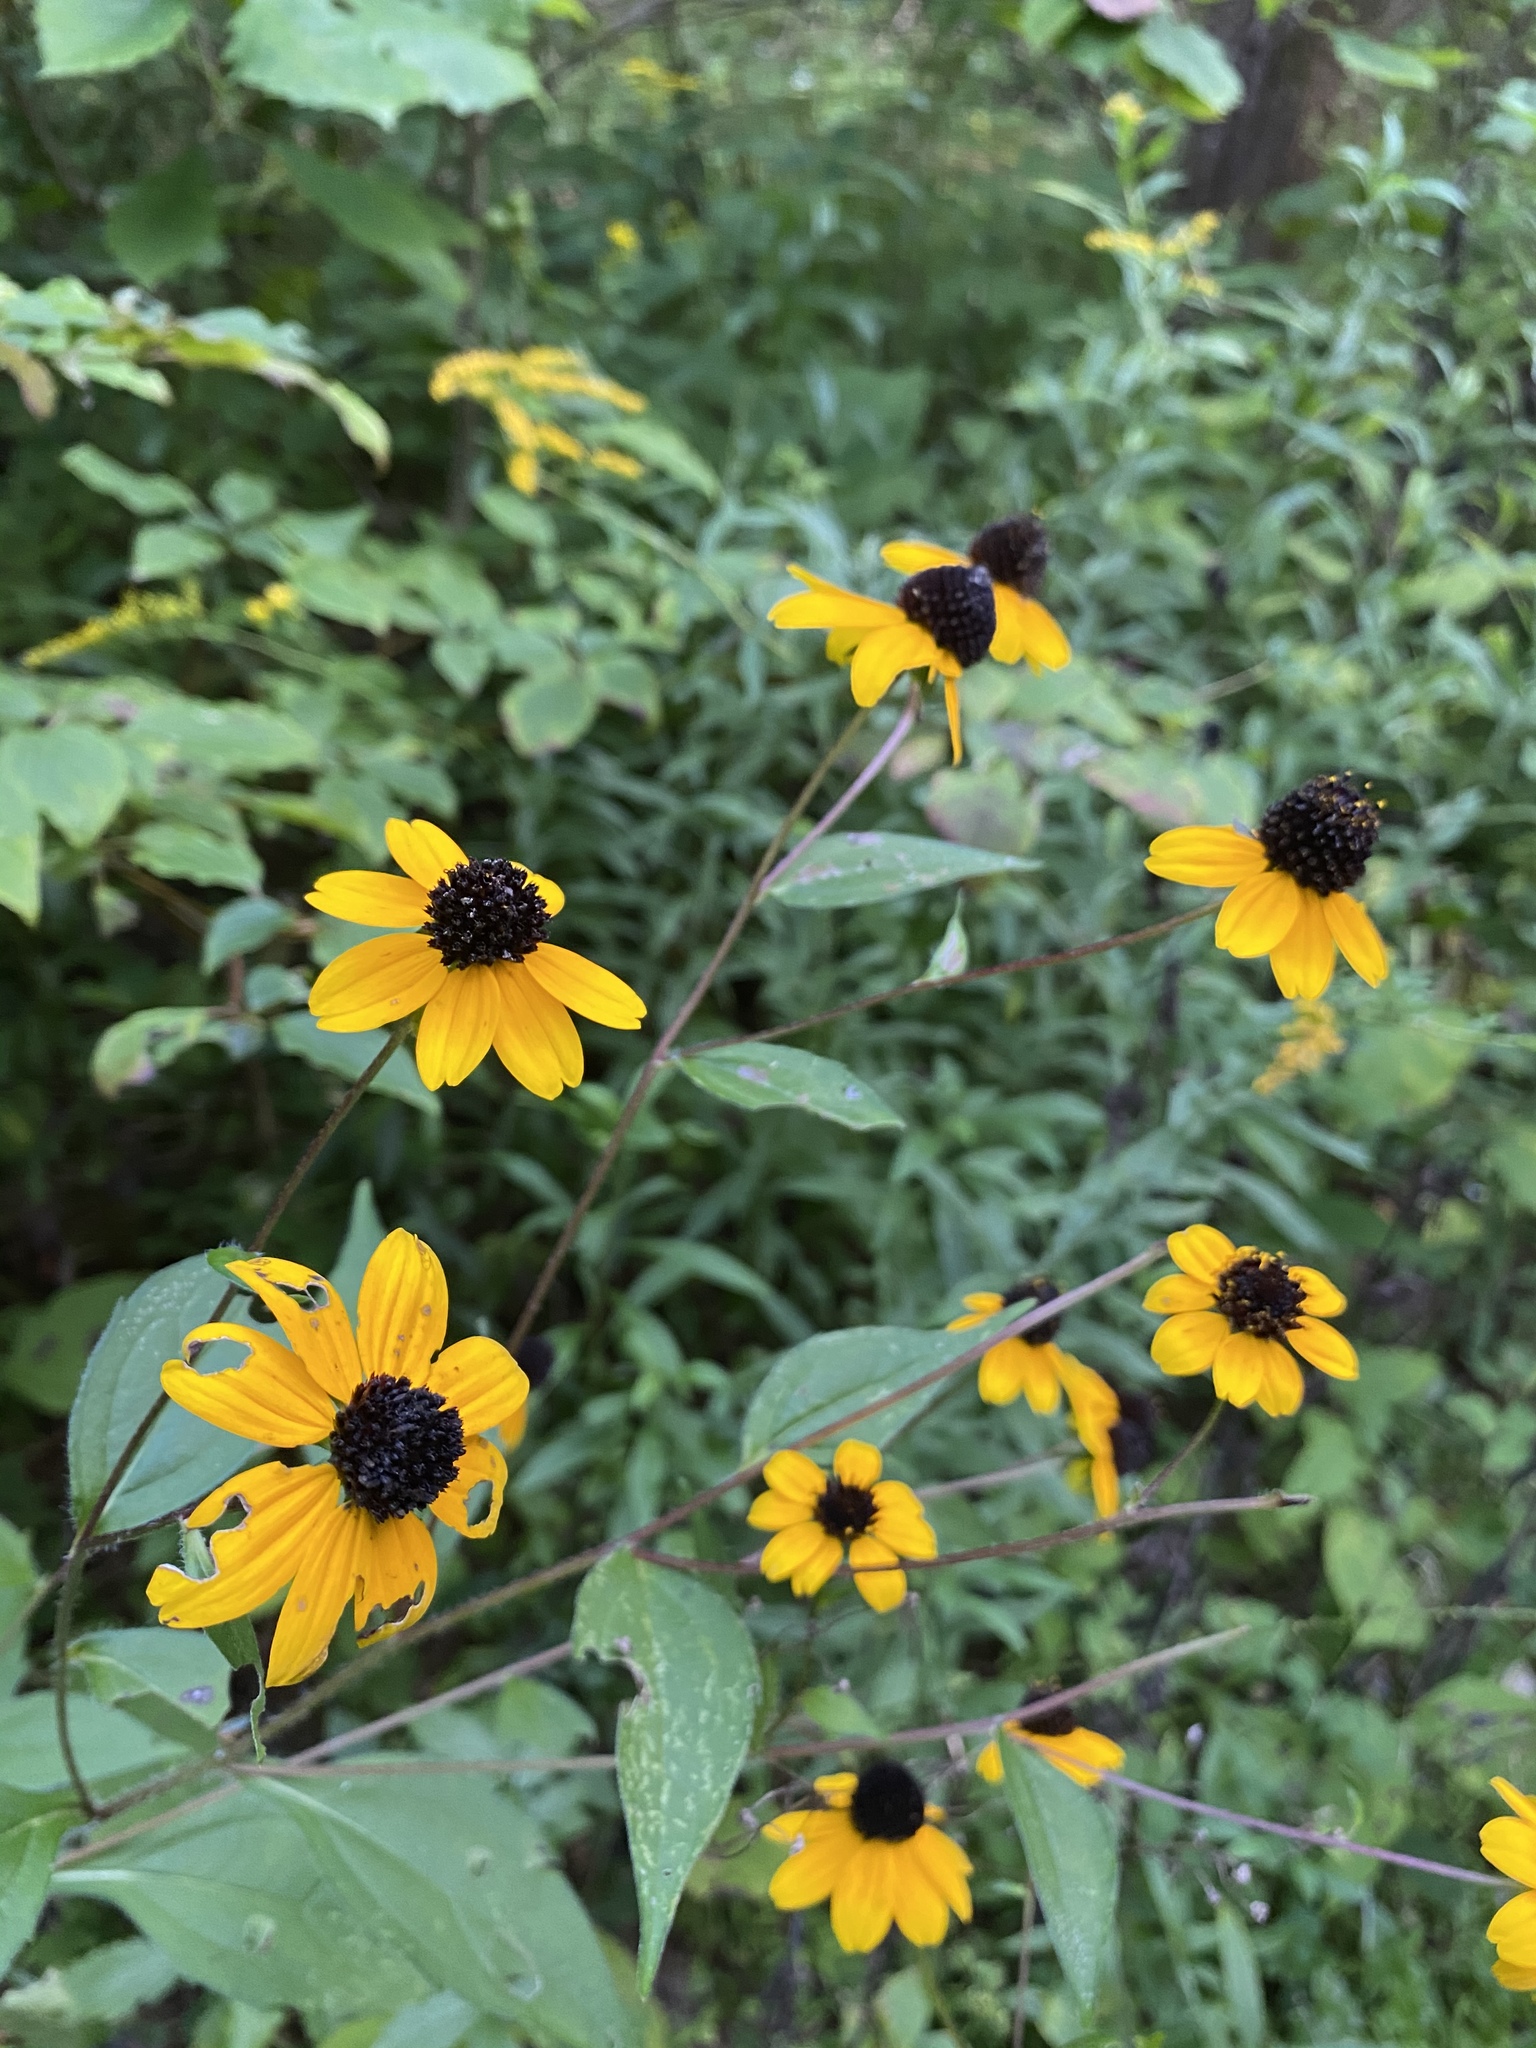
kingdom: Plantae
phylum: Tracheophyta
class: Magnoliopsida
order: Asterales
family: Asteraceae
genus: Rudbeckia
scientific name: Rudbeckia triloba
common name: Thin-leaved coneflower
